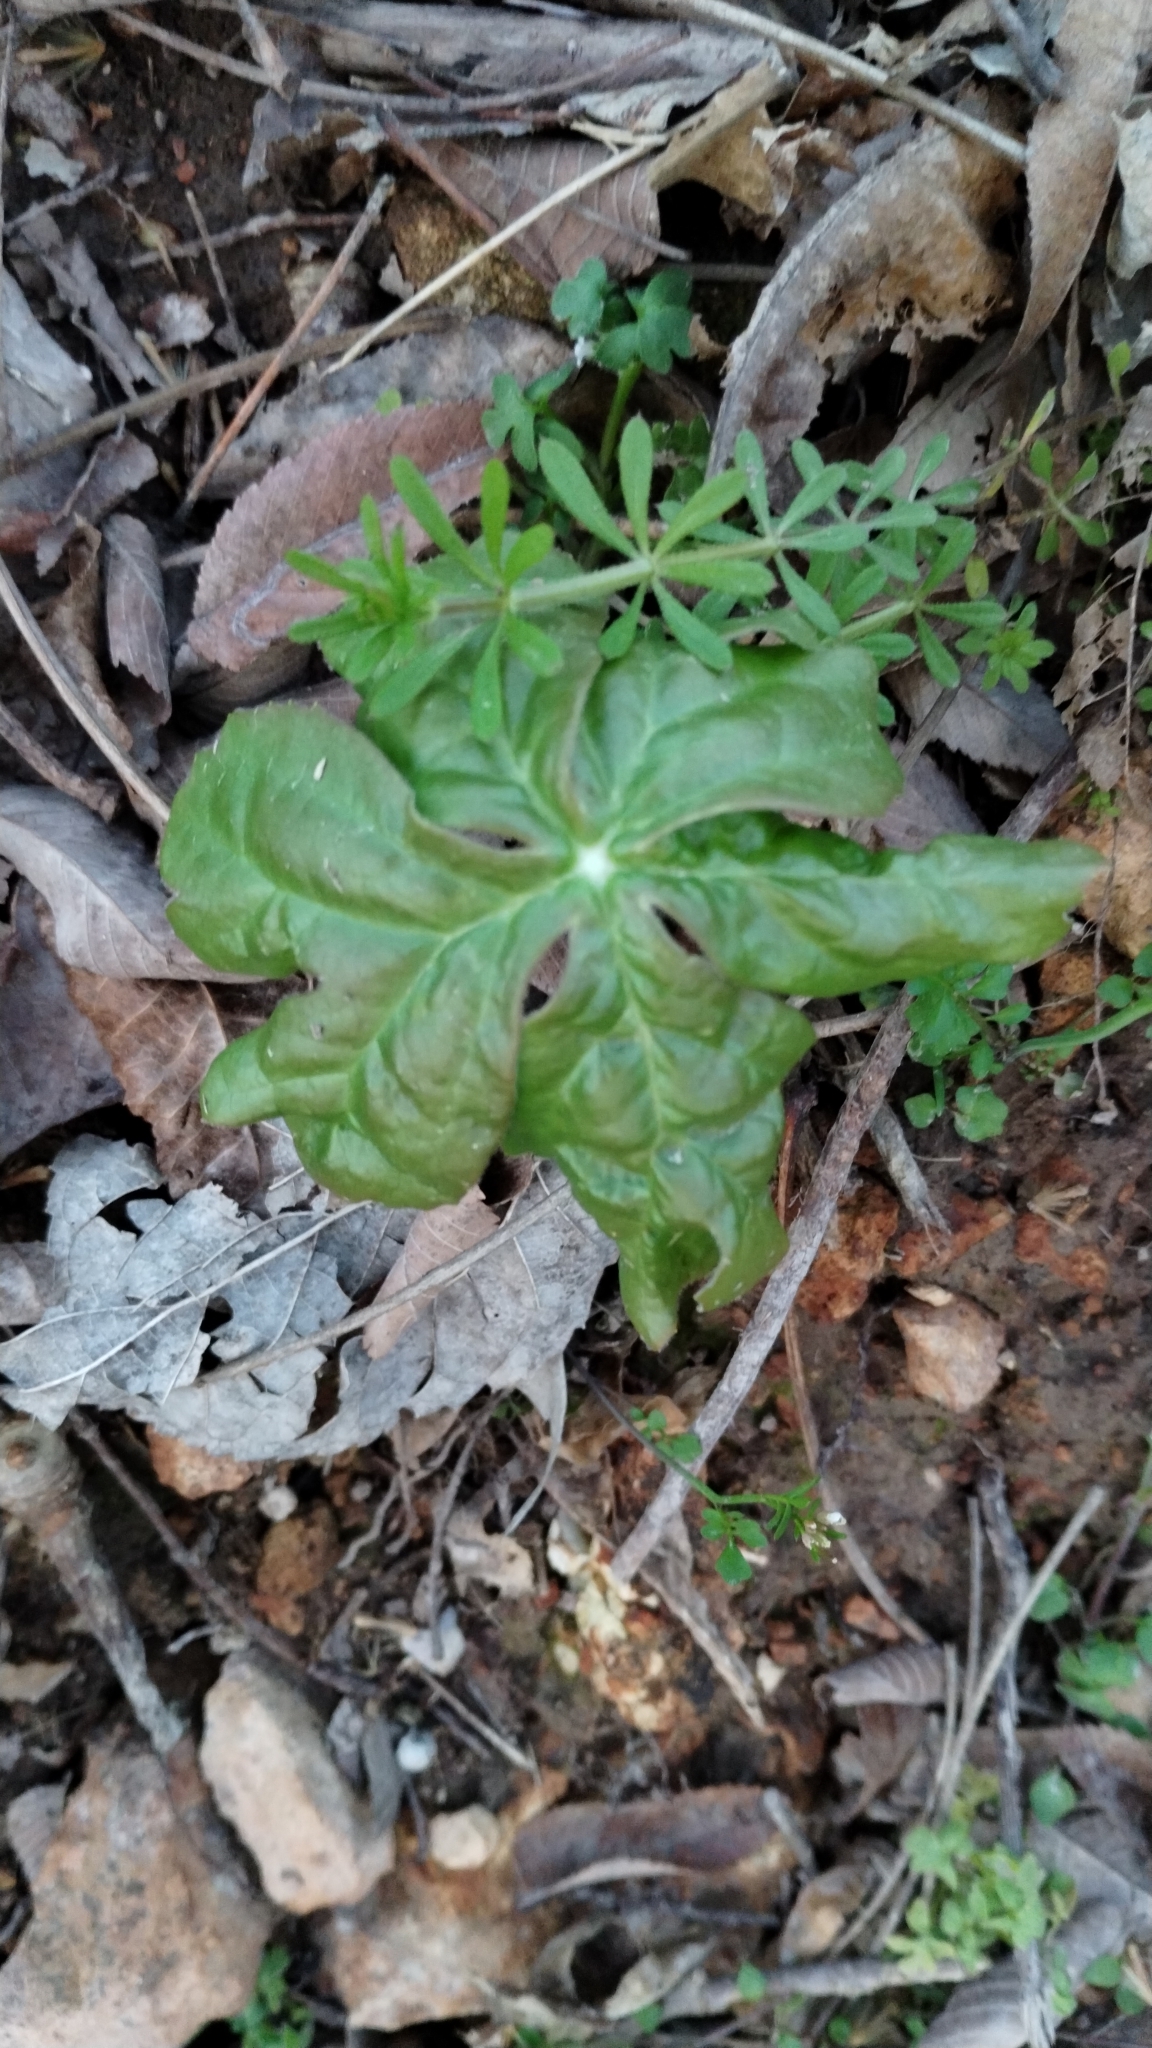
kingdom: Plantae
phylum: Tracheophyta
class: Magnoliopsida
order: Ranunculales
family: Berberidaceae
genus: Podophyllum
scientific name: Podophyllum peltatum
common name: Wild mandrake
